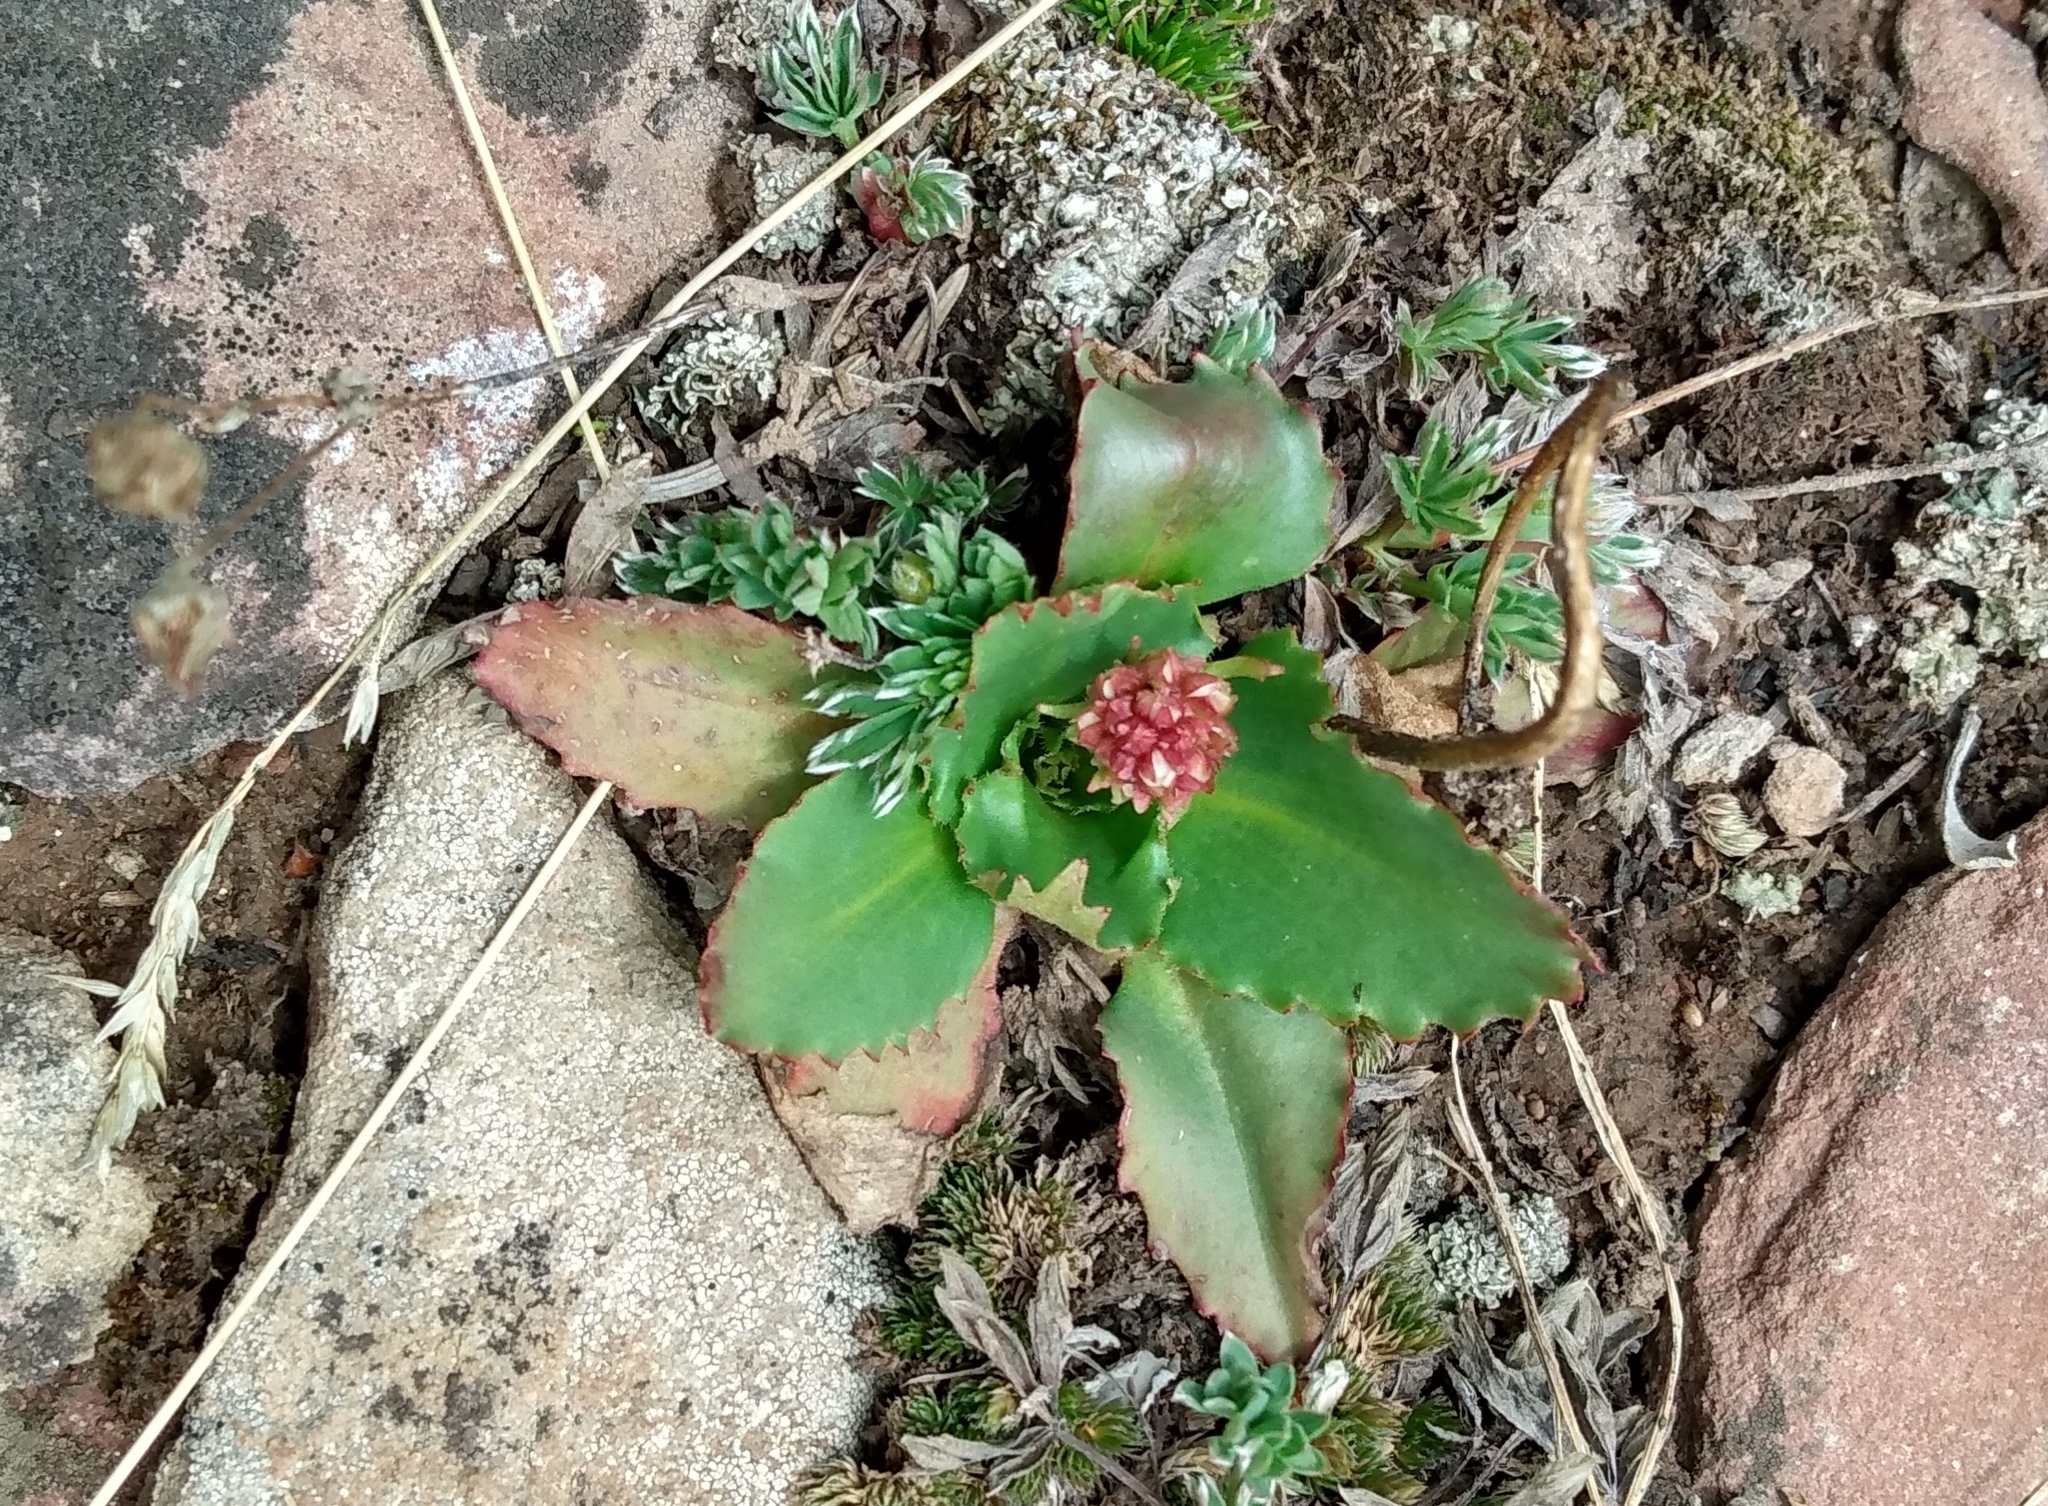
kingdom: Plantae
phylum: Tracheophyta
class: Magnoliopsida
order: Saxifragales
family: Saxifragaceae
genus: Micranthes
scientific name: Micranthes rhomboidea
